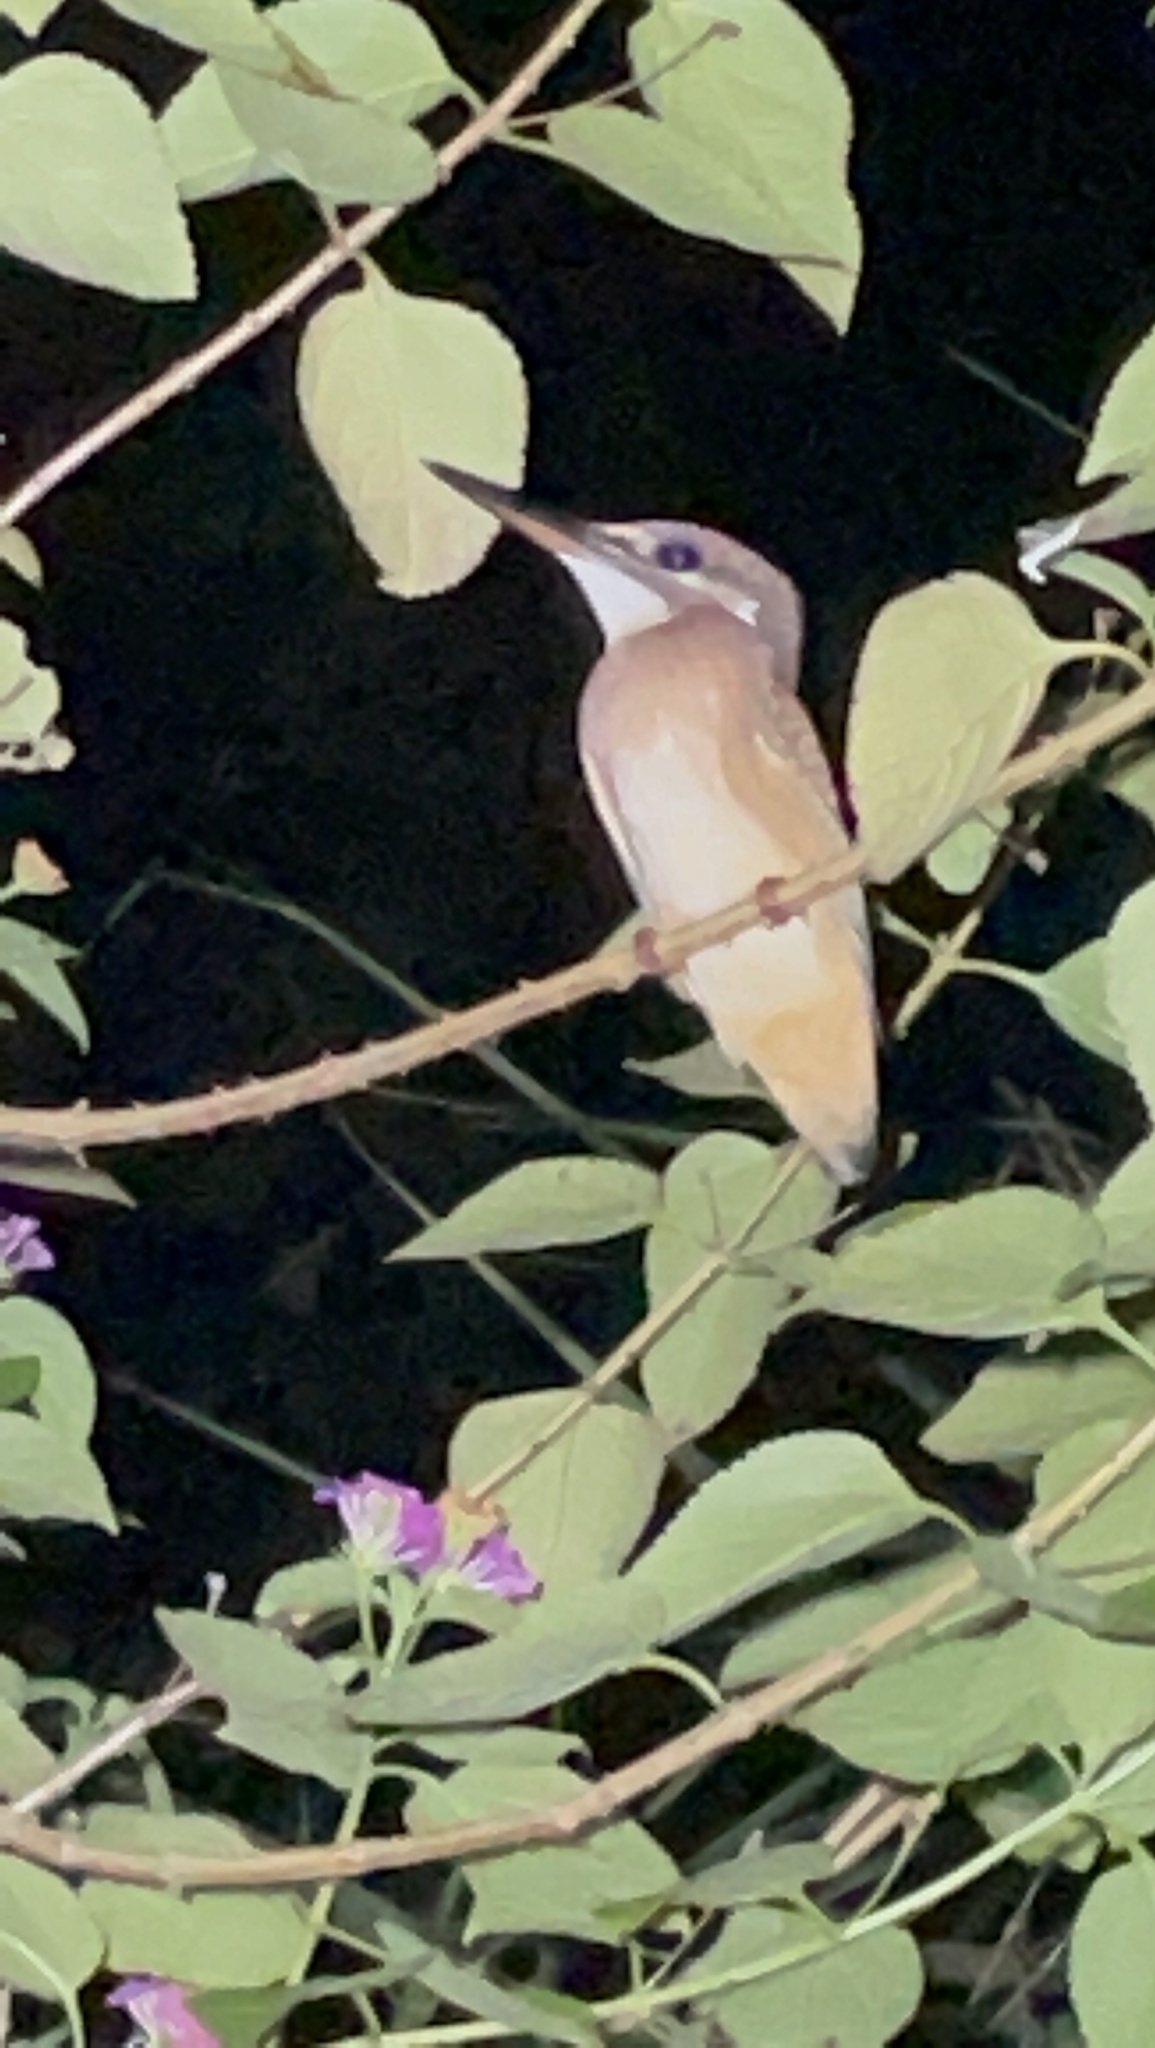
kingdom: Animalia
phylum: Chordata
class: Aves
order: Coraciiformes
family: Alcedinidae
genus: Alcedo
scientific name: Alcedo atthis
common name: Common kingfisher
